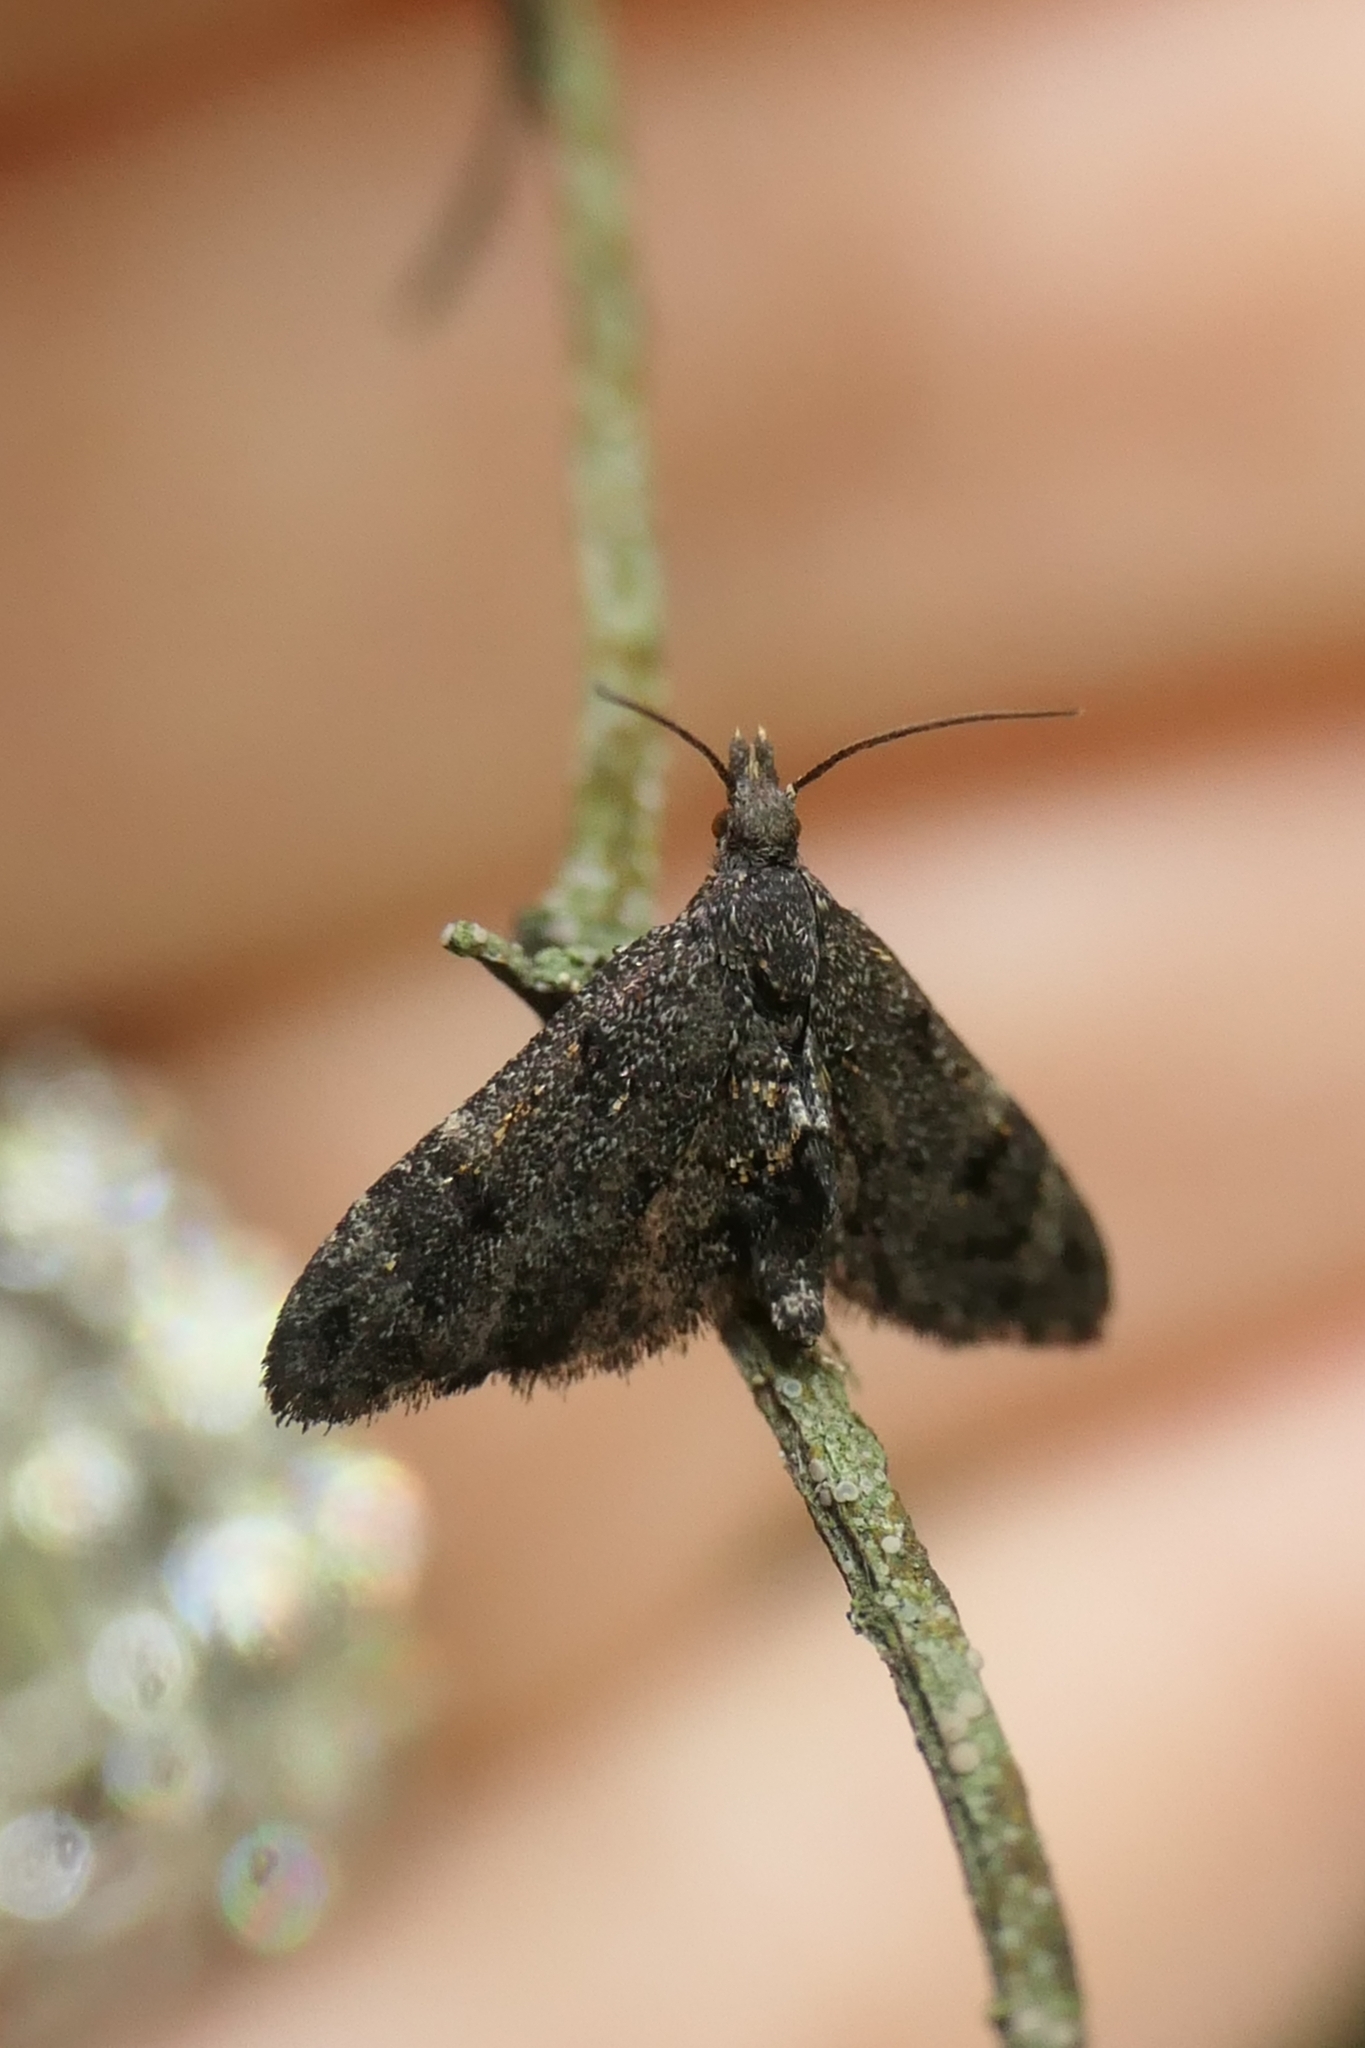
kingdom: Animalia
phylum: Arthropoda
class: Insecta
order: Lepidoptera
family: Copromorphidae
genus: Isonomeutis
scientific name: Isonomeutis amauropa
